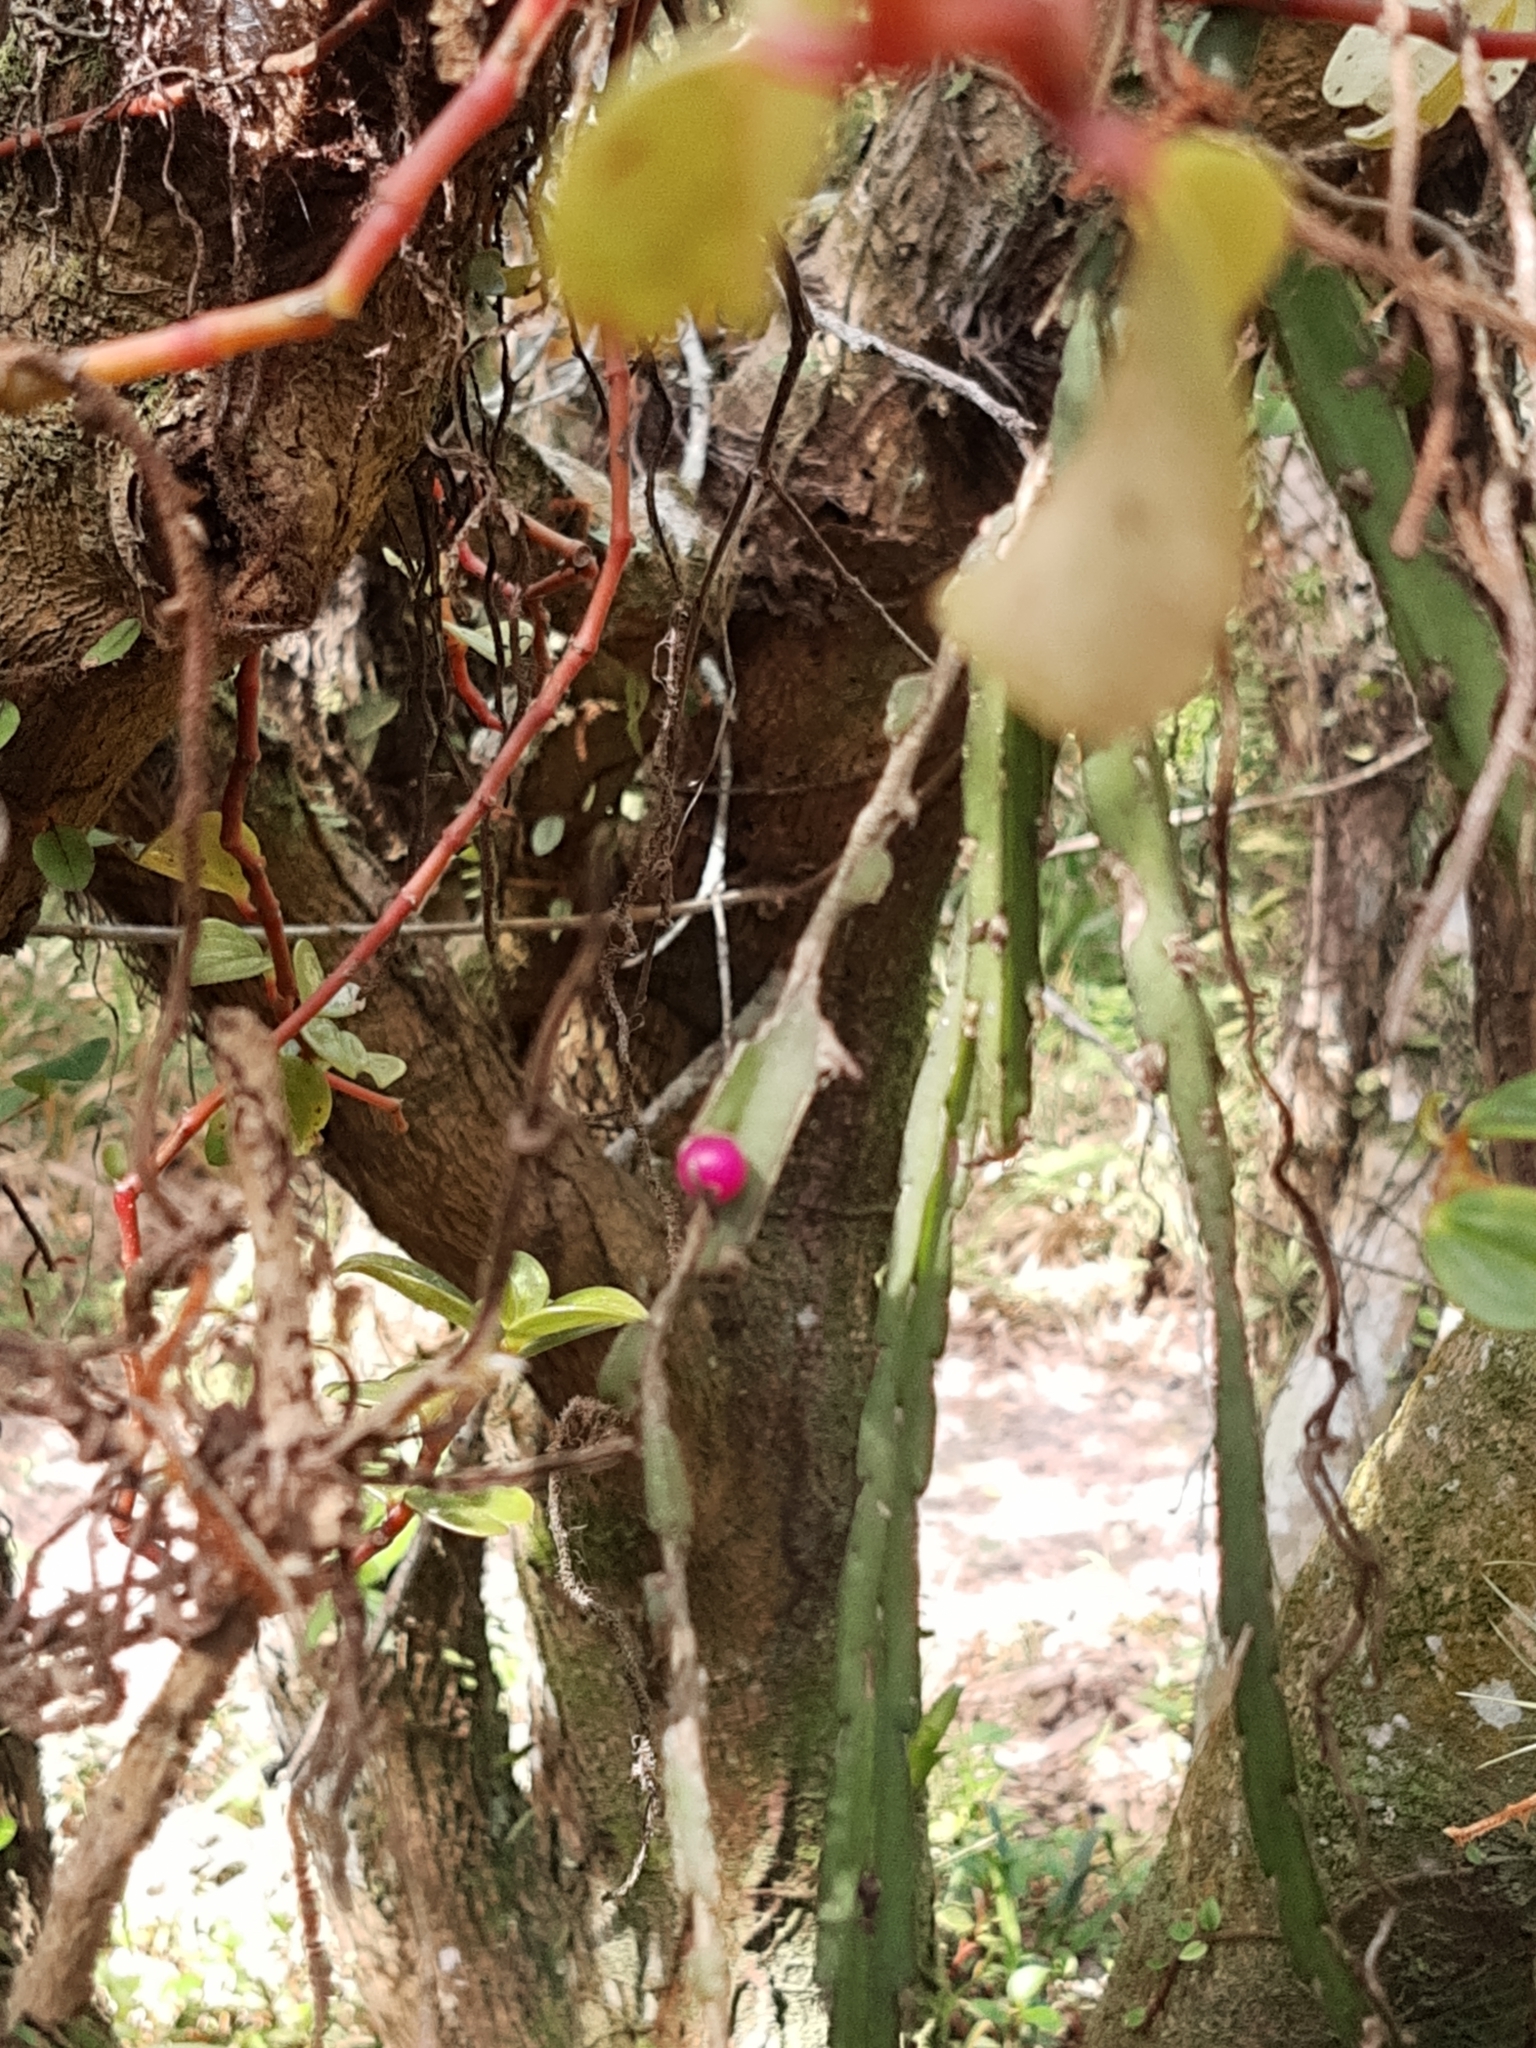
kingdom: Plantae
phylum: Tracheophyta
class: Magnoliopsida
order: Caryophyllales
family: Cactaceae
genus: Lepismium
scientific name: Lepismium cruciforme
